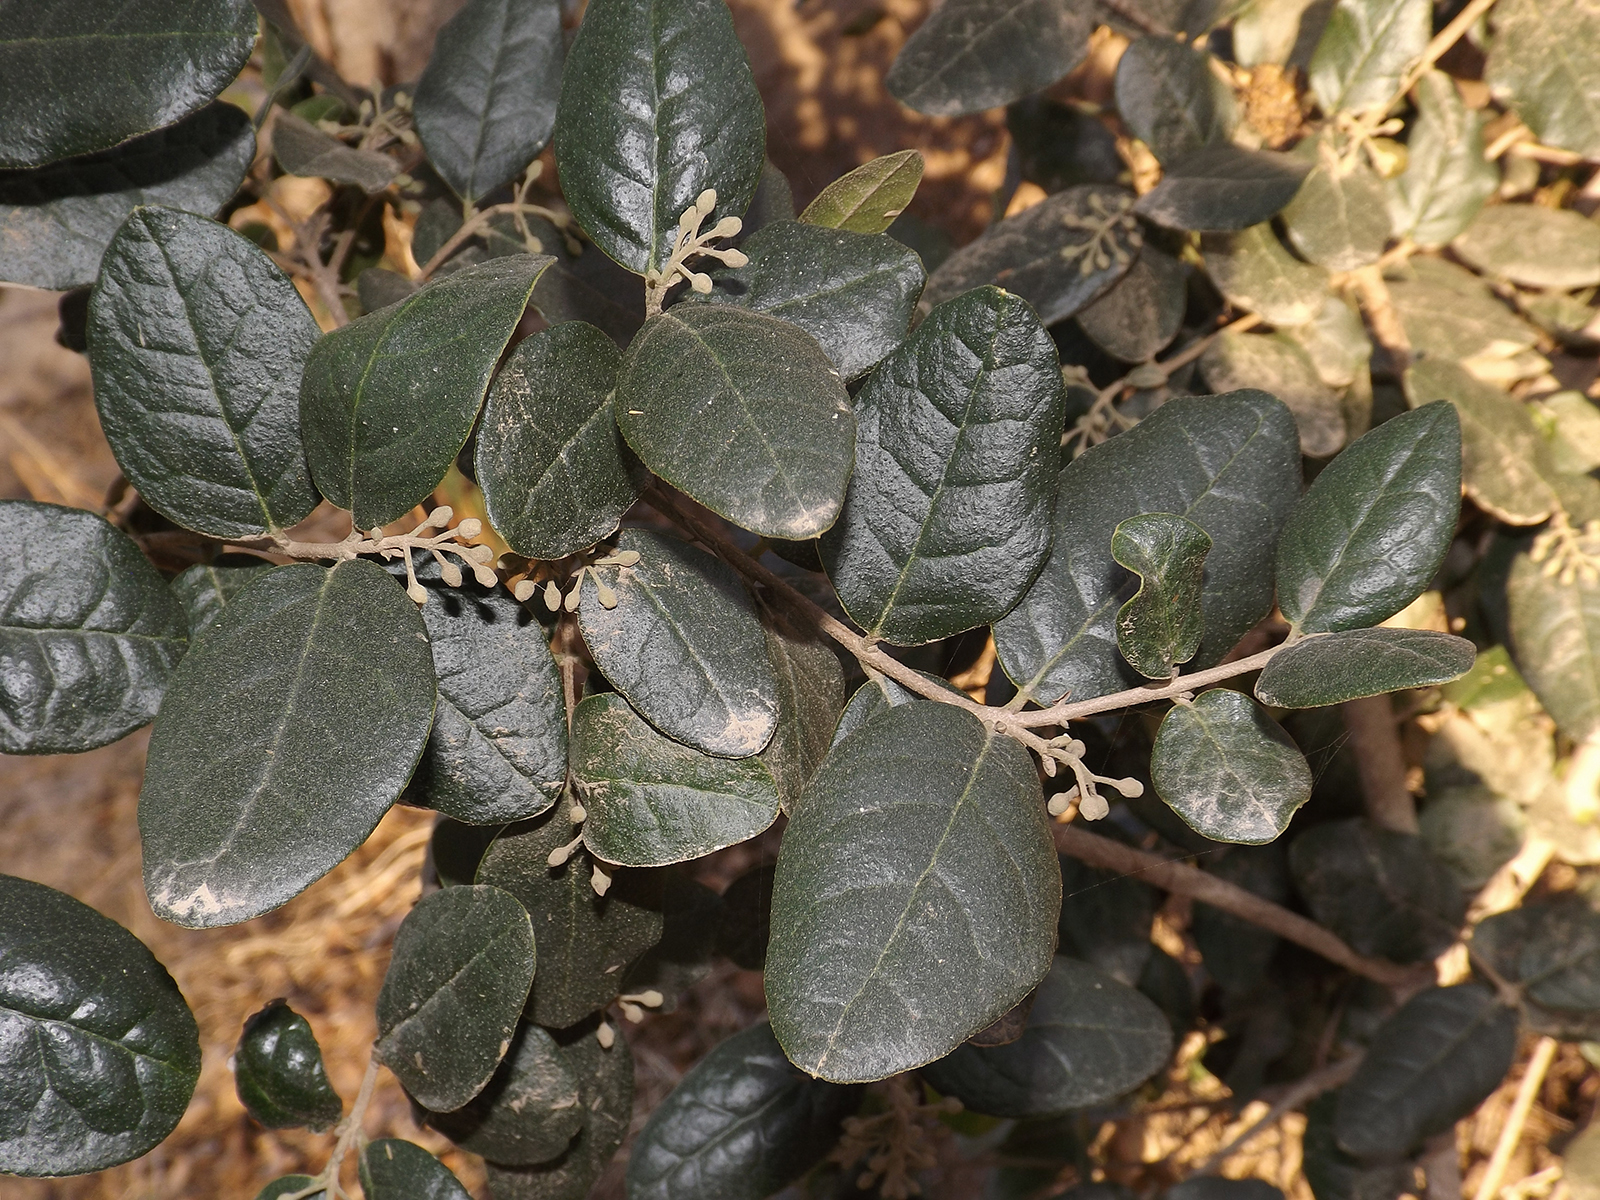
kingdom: Plantae
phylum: Tracheophyta
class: Magnoliopsida
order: Laurales
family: Monimiaceae
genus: Peumus
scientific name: Peumus boldus
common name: Boldo
